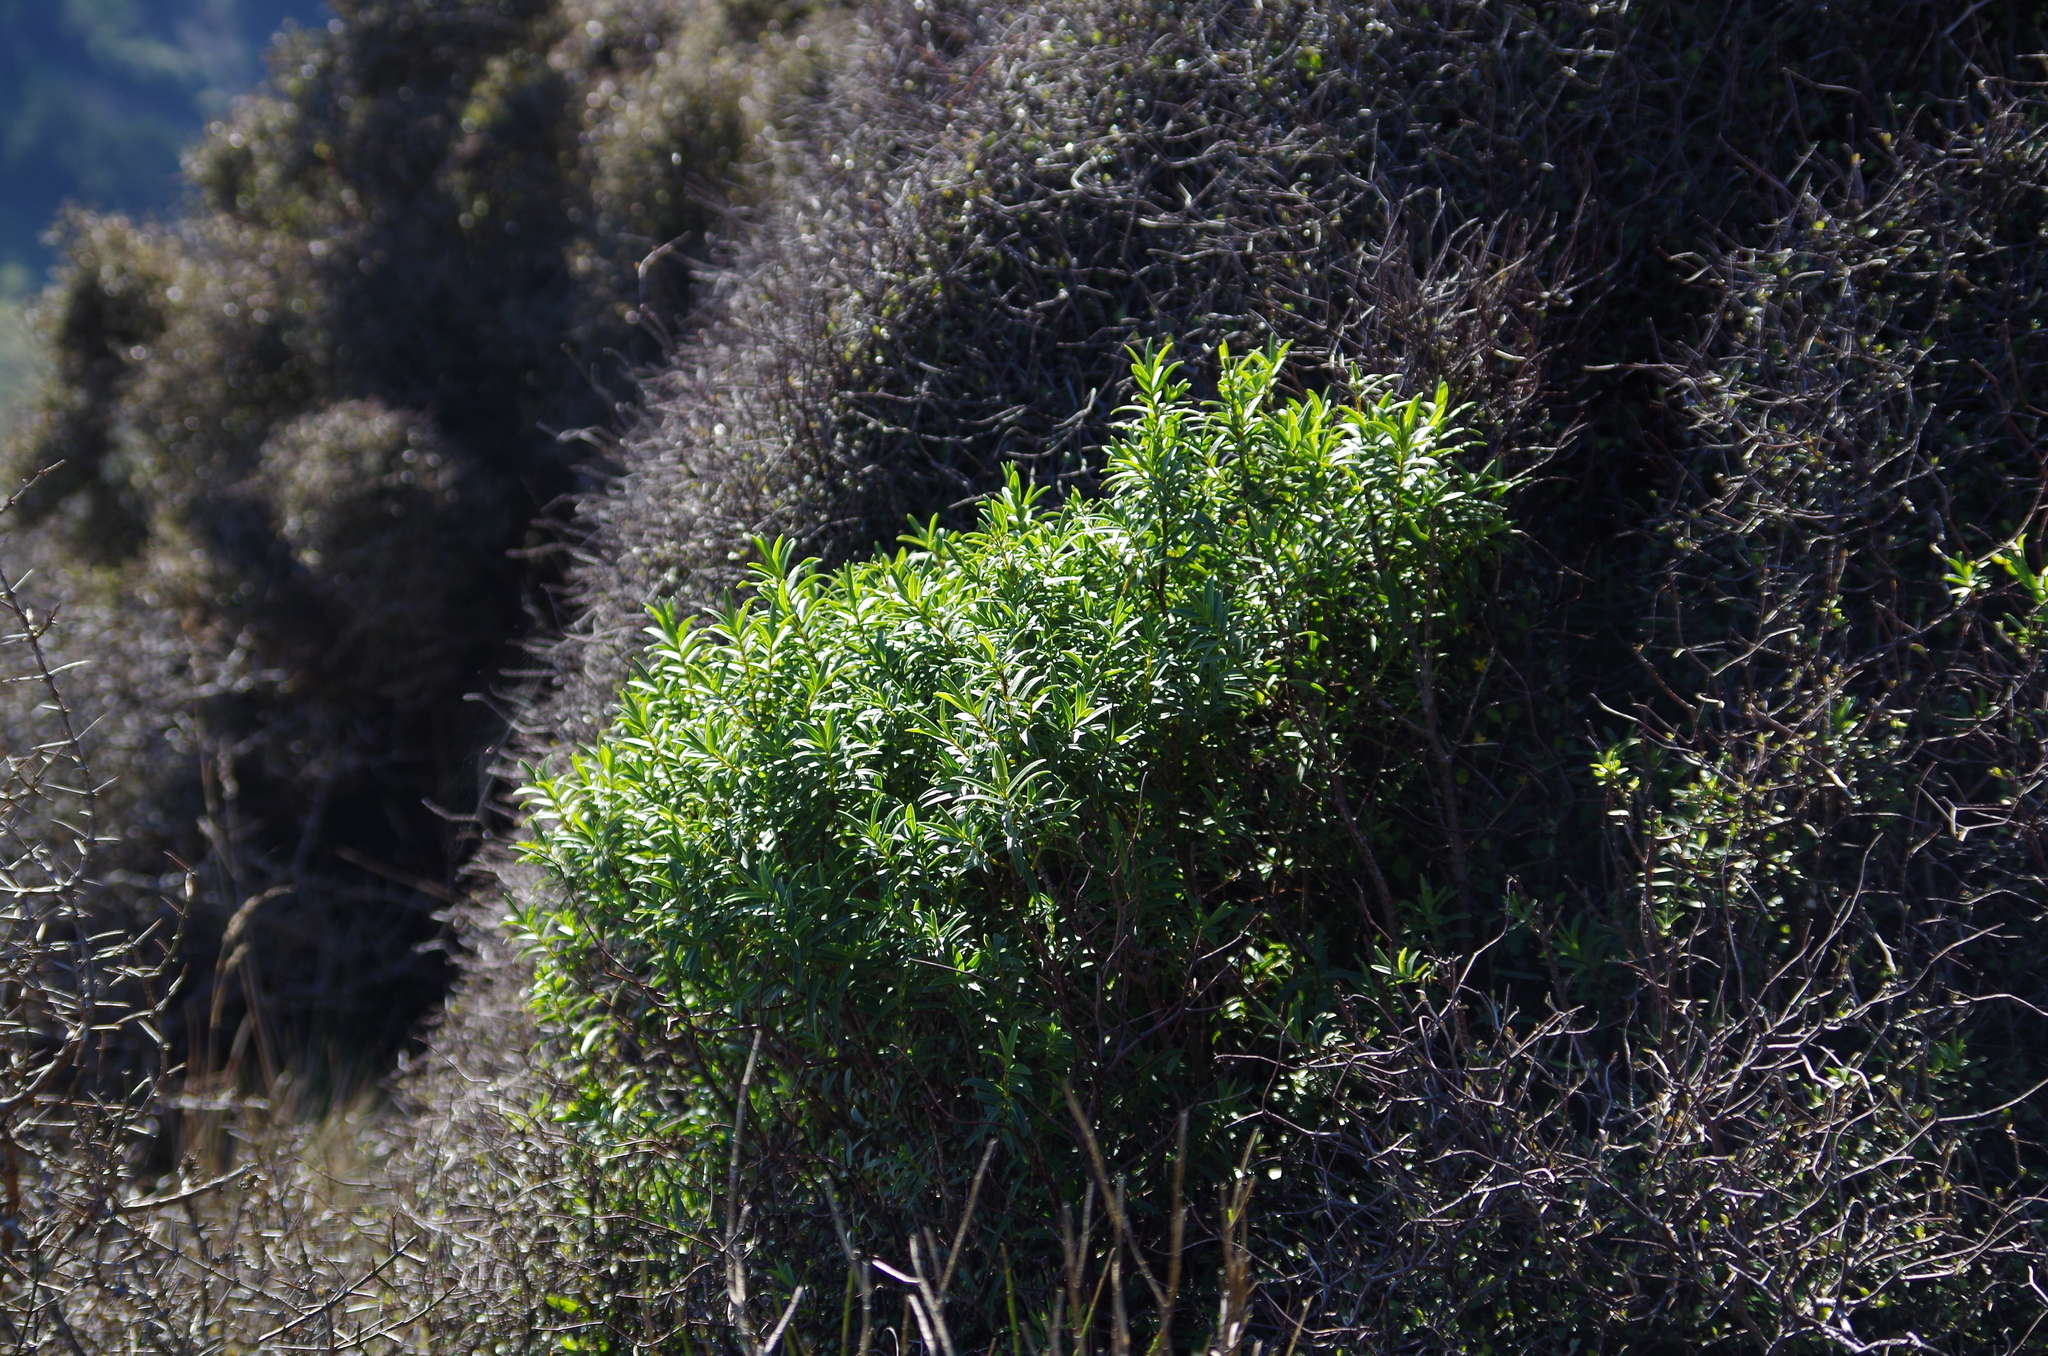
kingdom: Plantae
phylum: Tracheophyta
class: Magnoliopsida
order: Lamiales
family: Plantaginaceae
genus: Veronica
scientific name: Veronica strictissima
